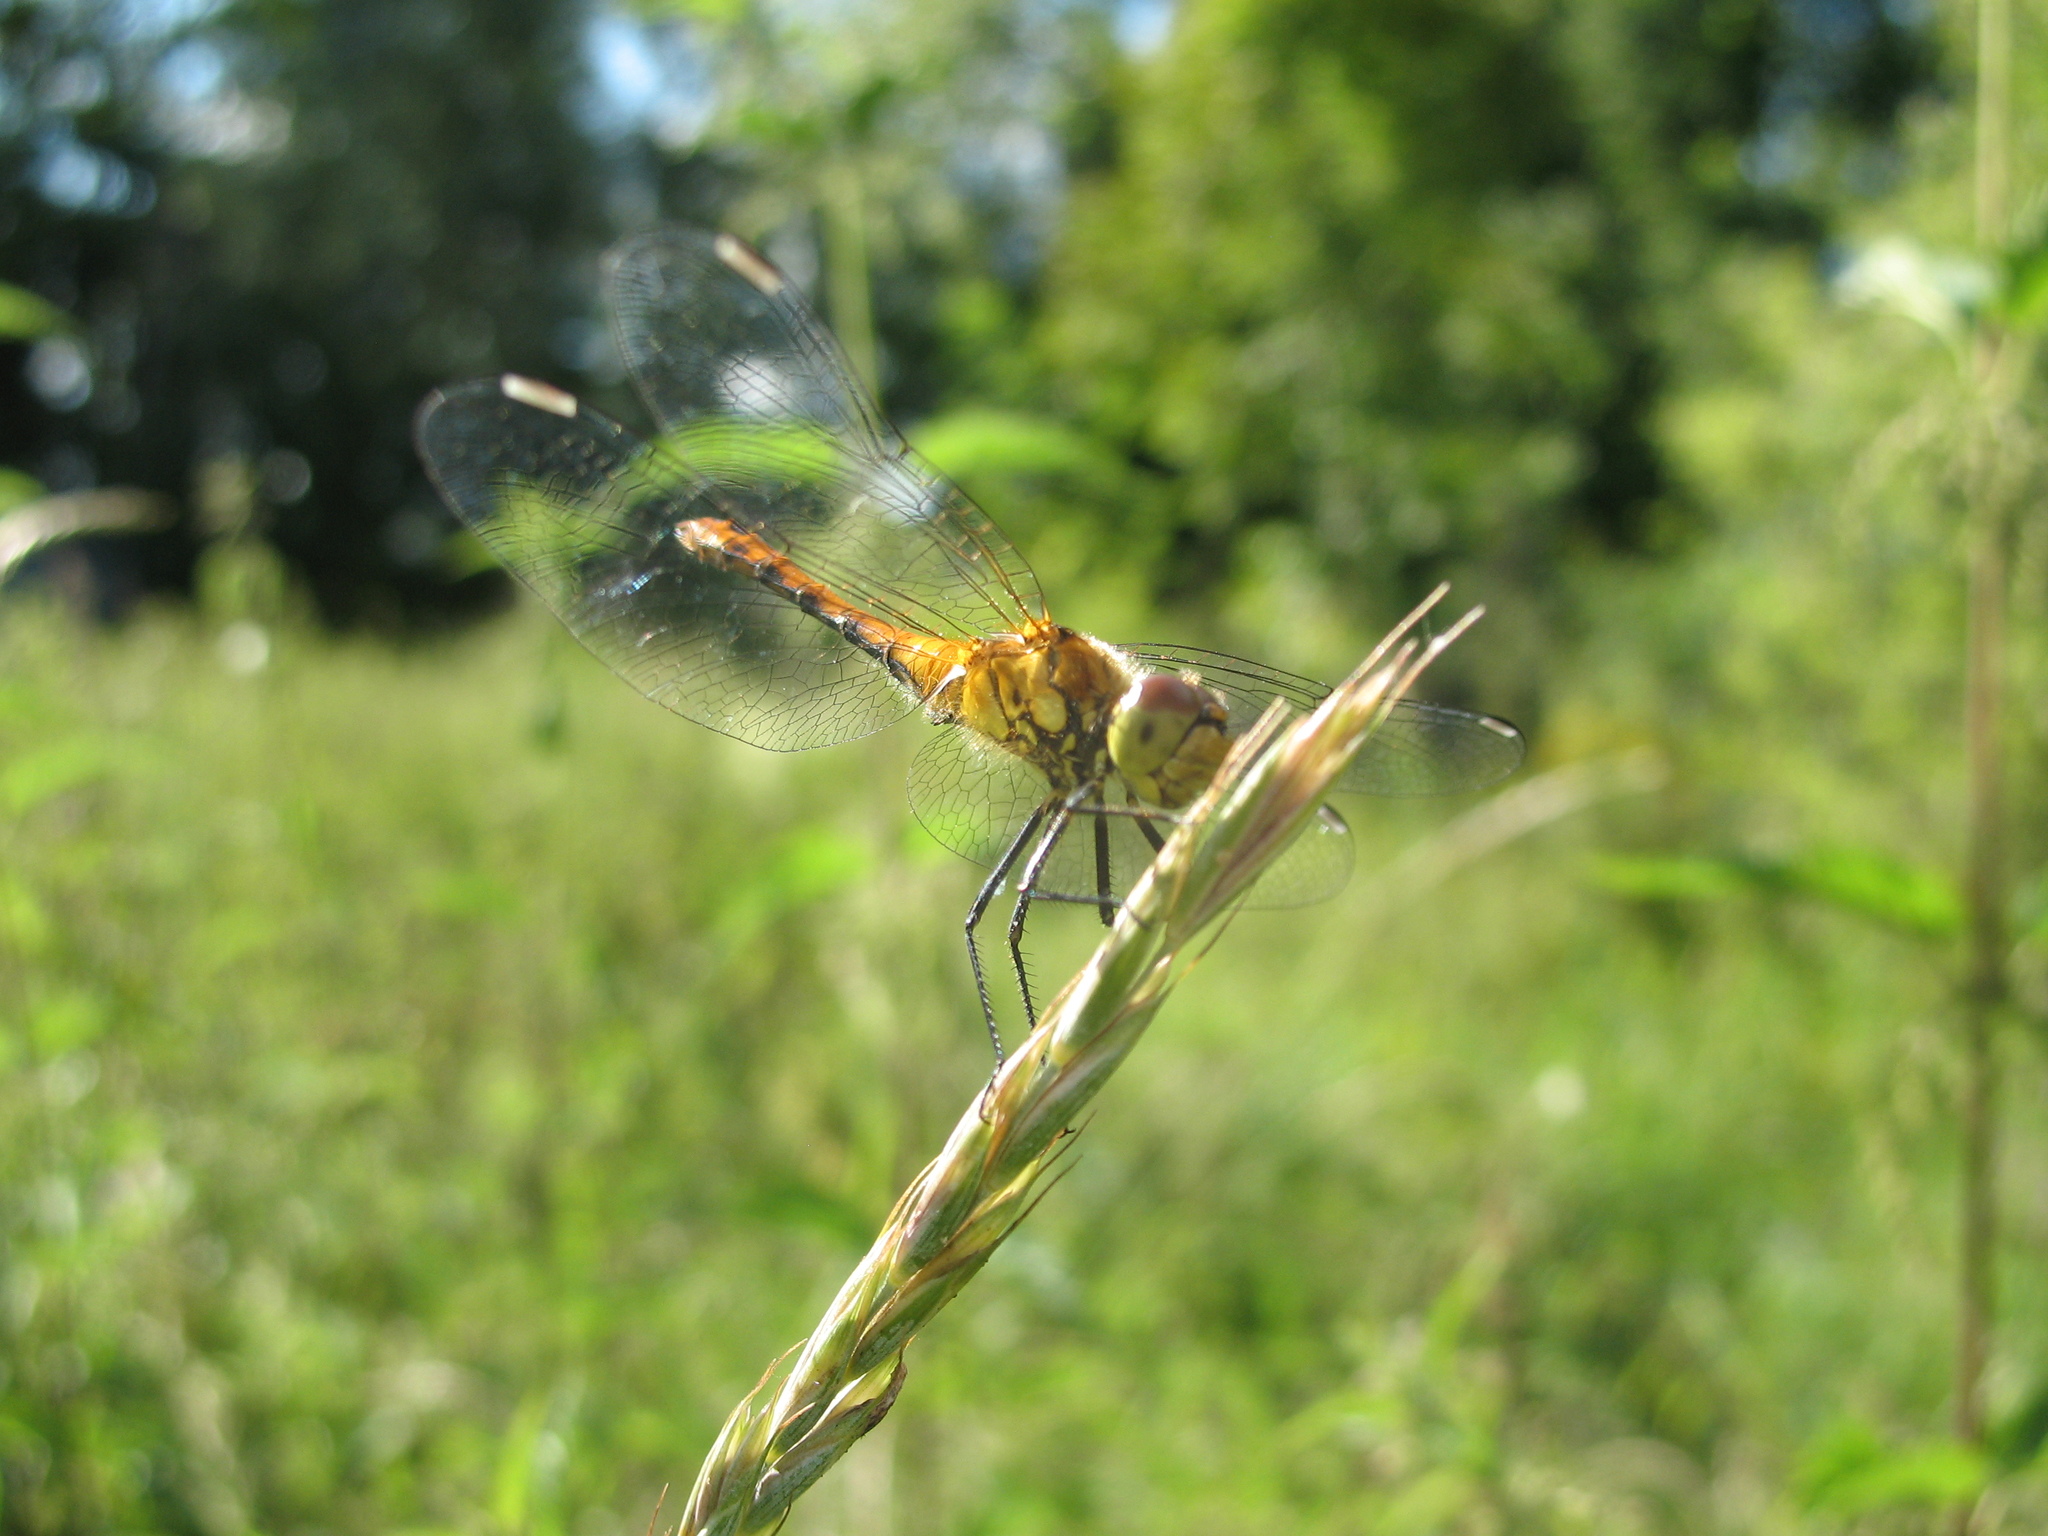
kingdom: Animalia
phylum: Arthropoda
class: Insecta
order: Odonata
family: Libellulidae
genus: Sympetrum
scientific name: Sympetrum sanguineum
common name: Ruddy darter
